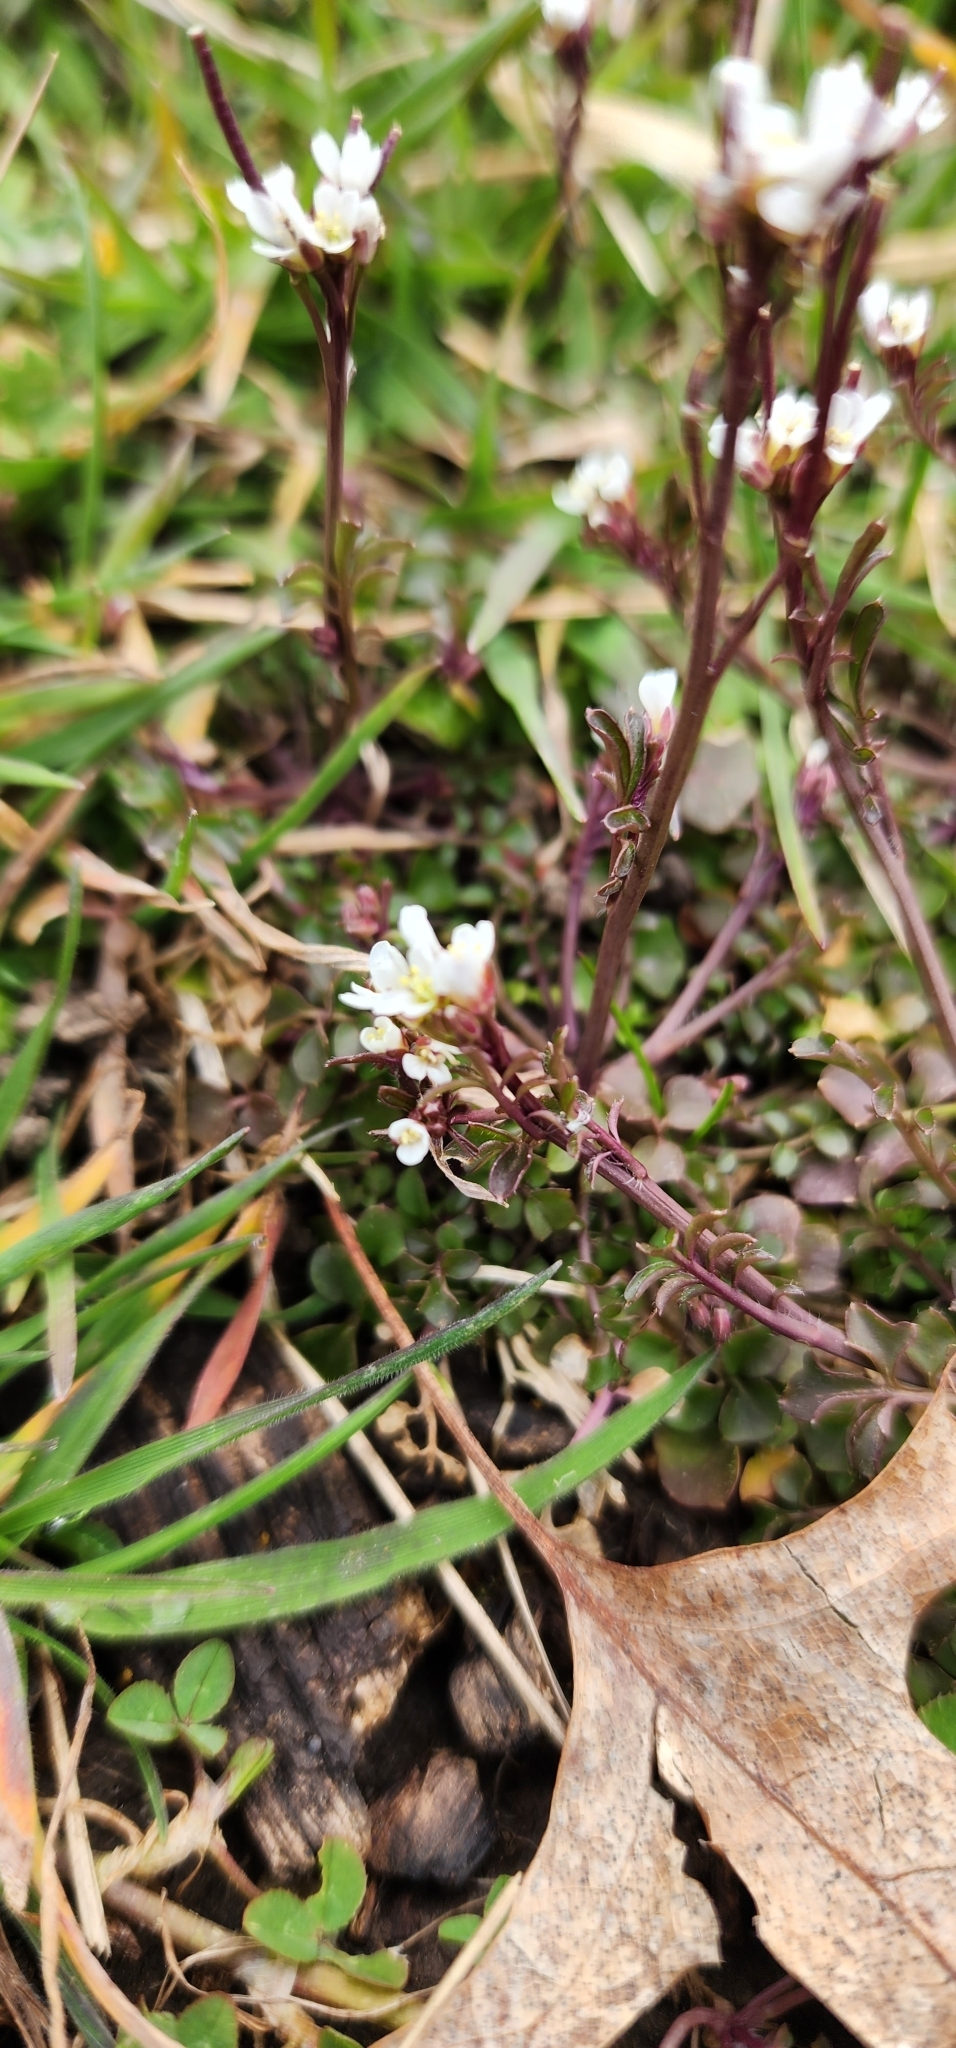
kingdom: Plantae
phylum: Tracheophyta
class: Magnoliopsida
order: Brassicales
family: Brassicaceae
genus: Cardamine
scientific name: Cardamine hirsuta
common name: Hairy bittercress
